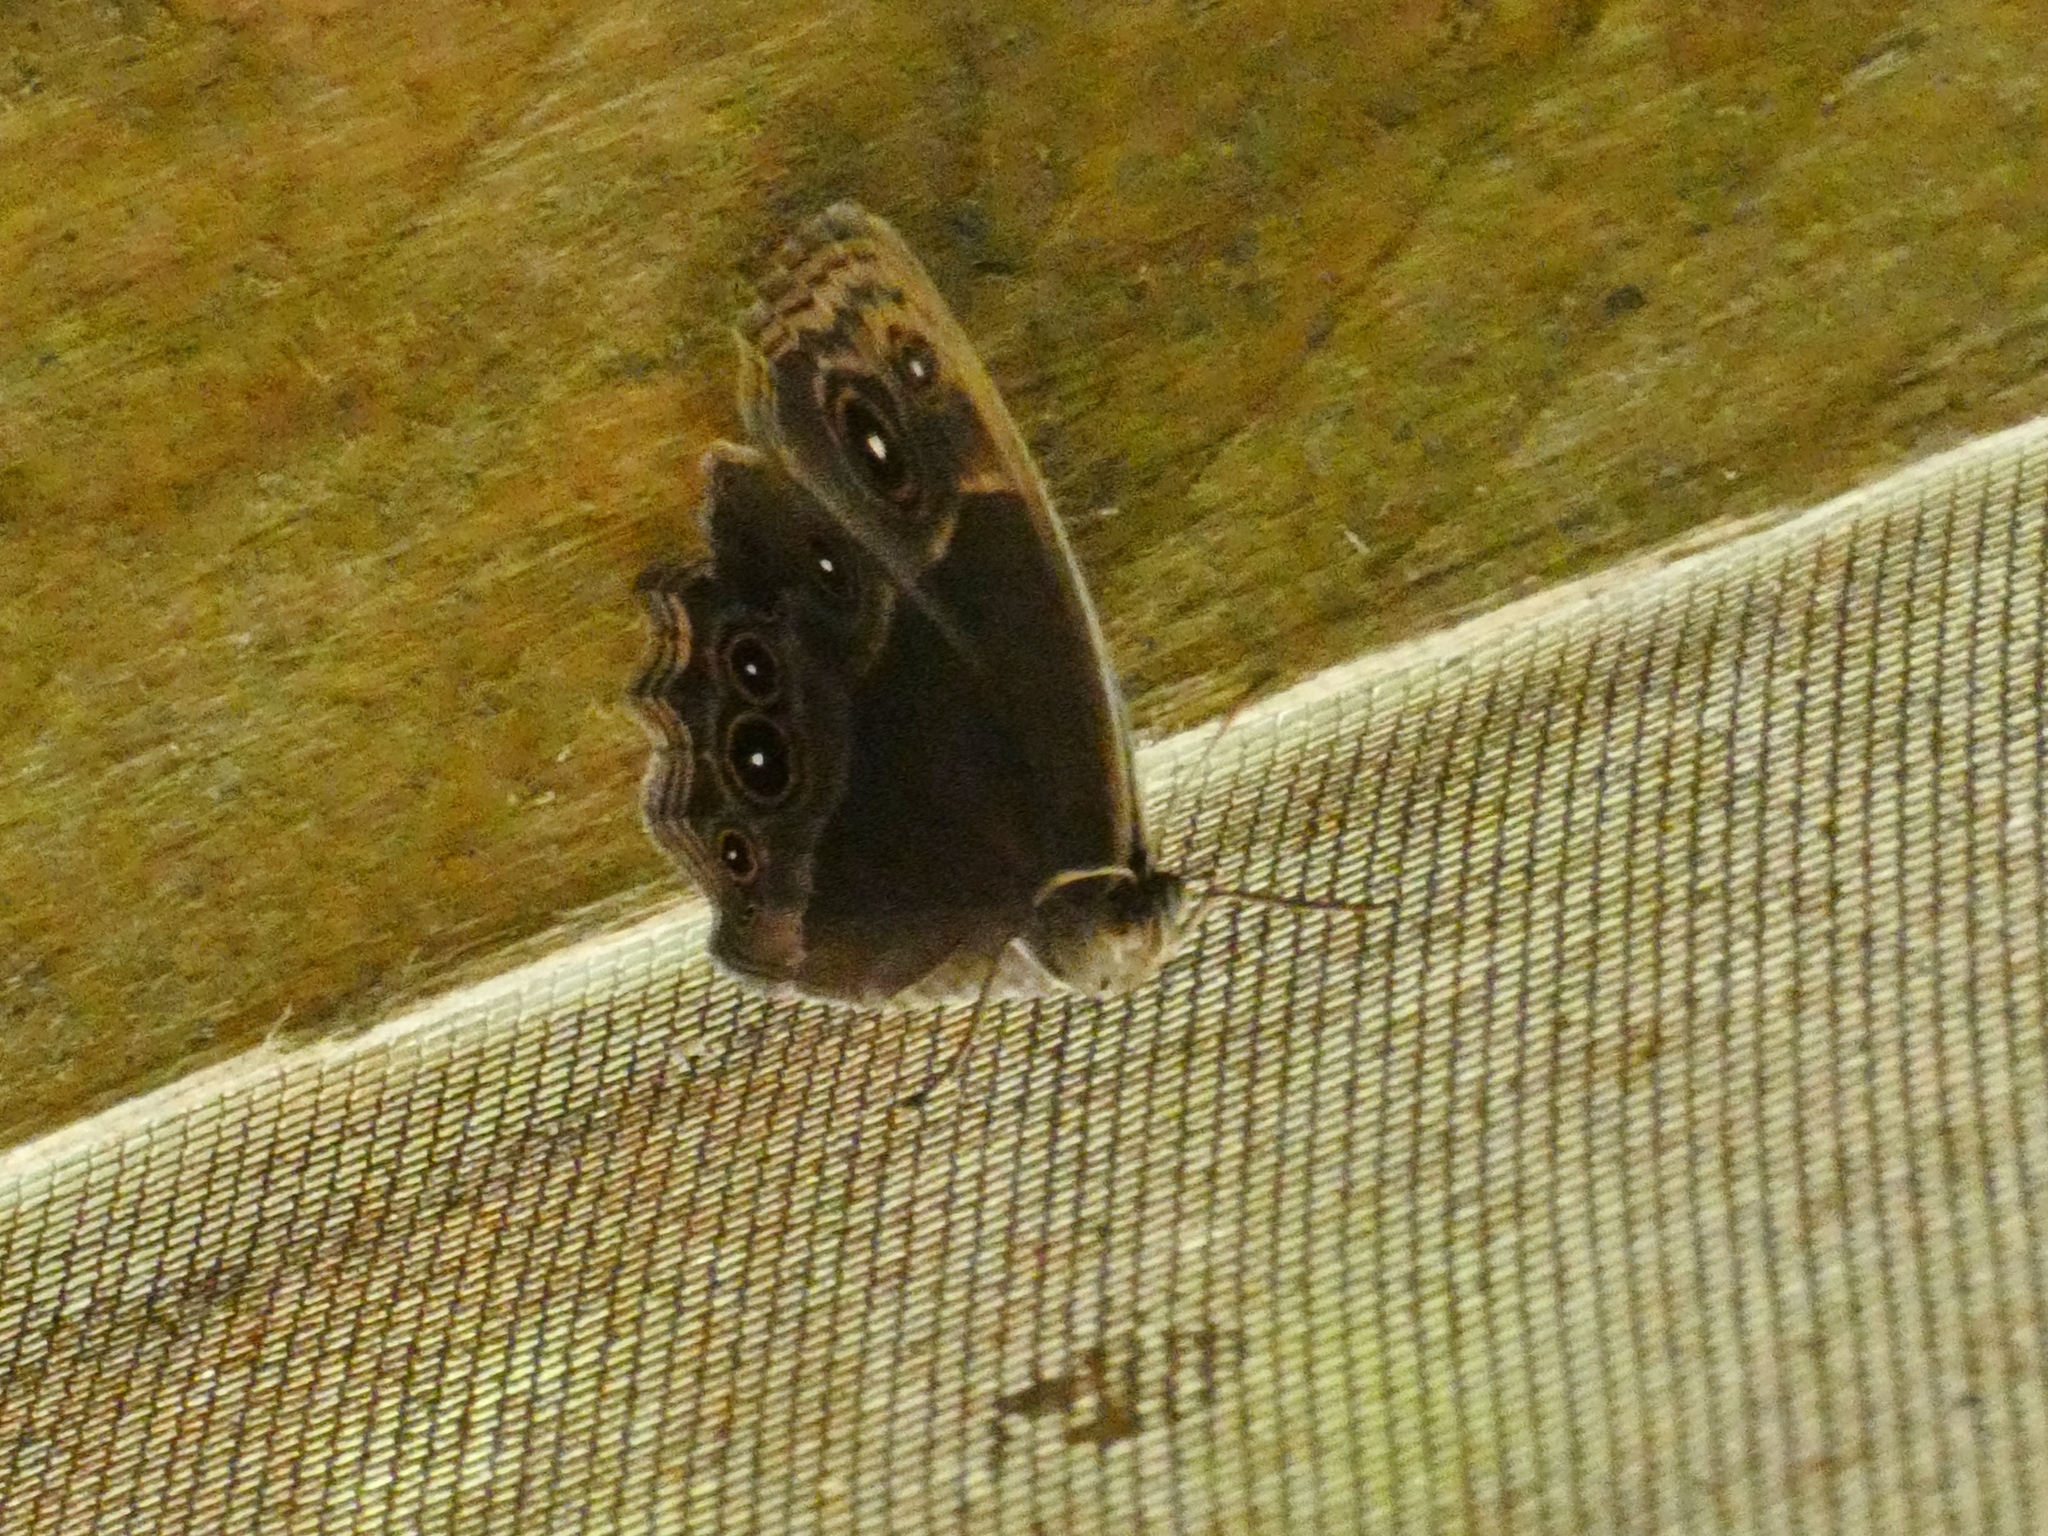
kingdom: Animalia
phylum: Arthropoda
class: Insecta
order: Lepidoptera
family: Nymphalidae
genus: Mycalesis
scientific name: Mycalesis rhacotis
